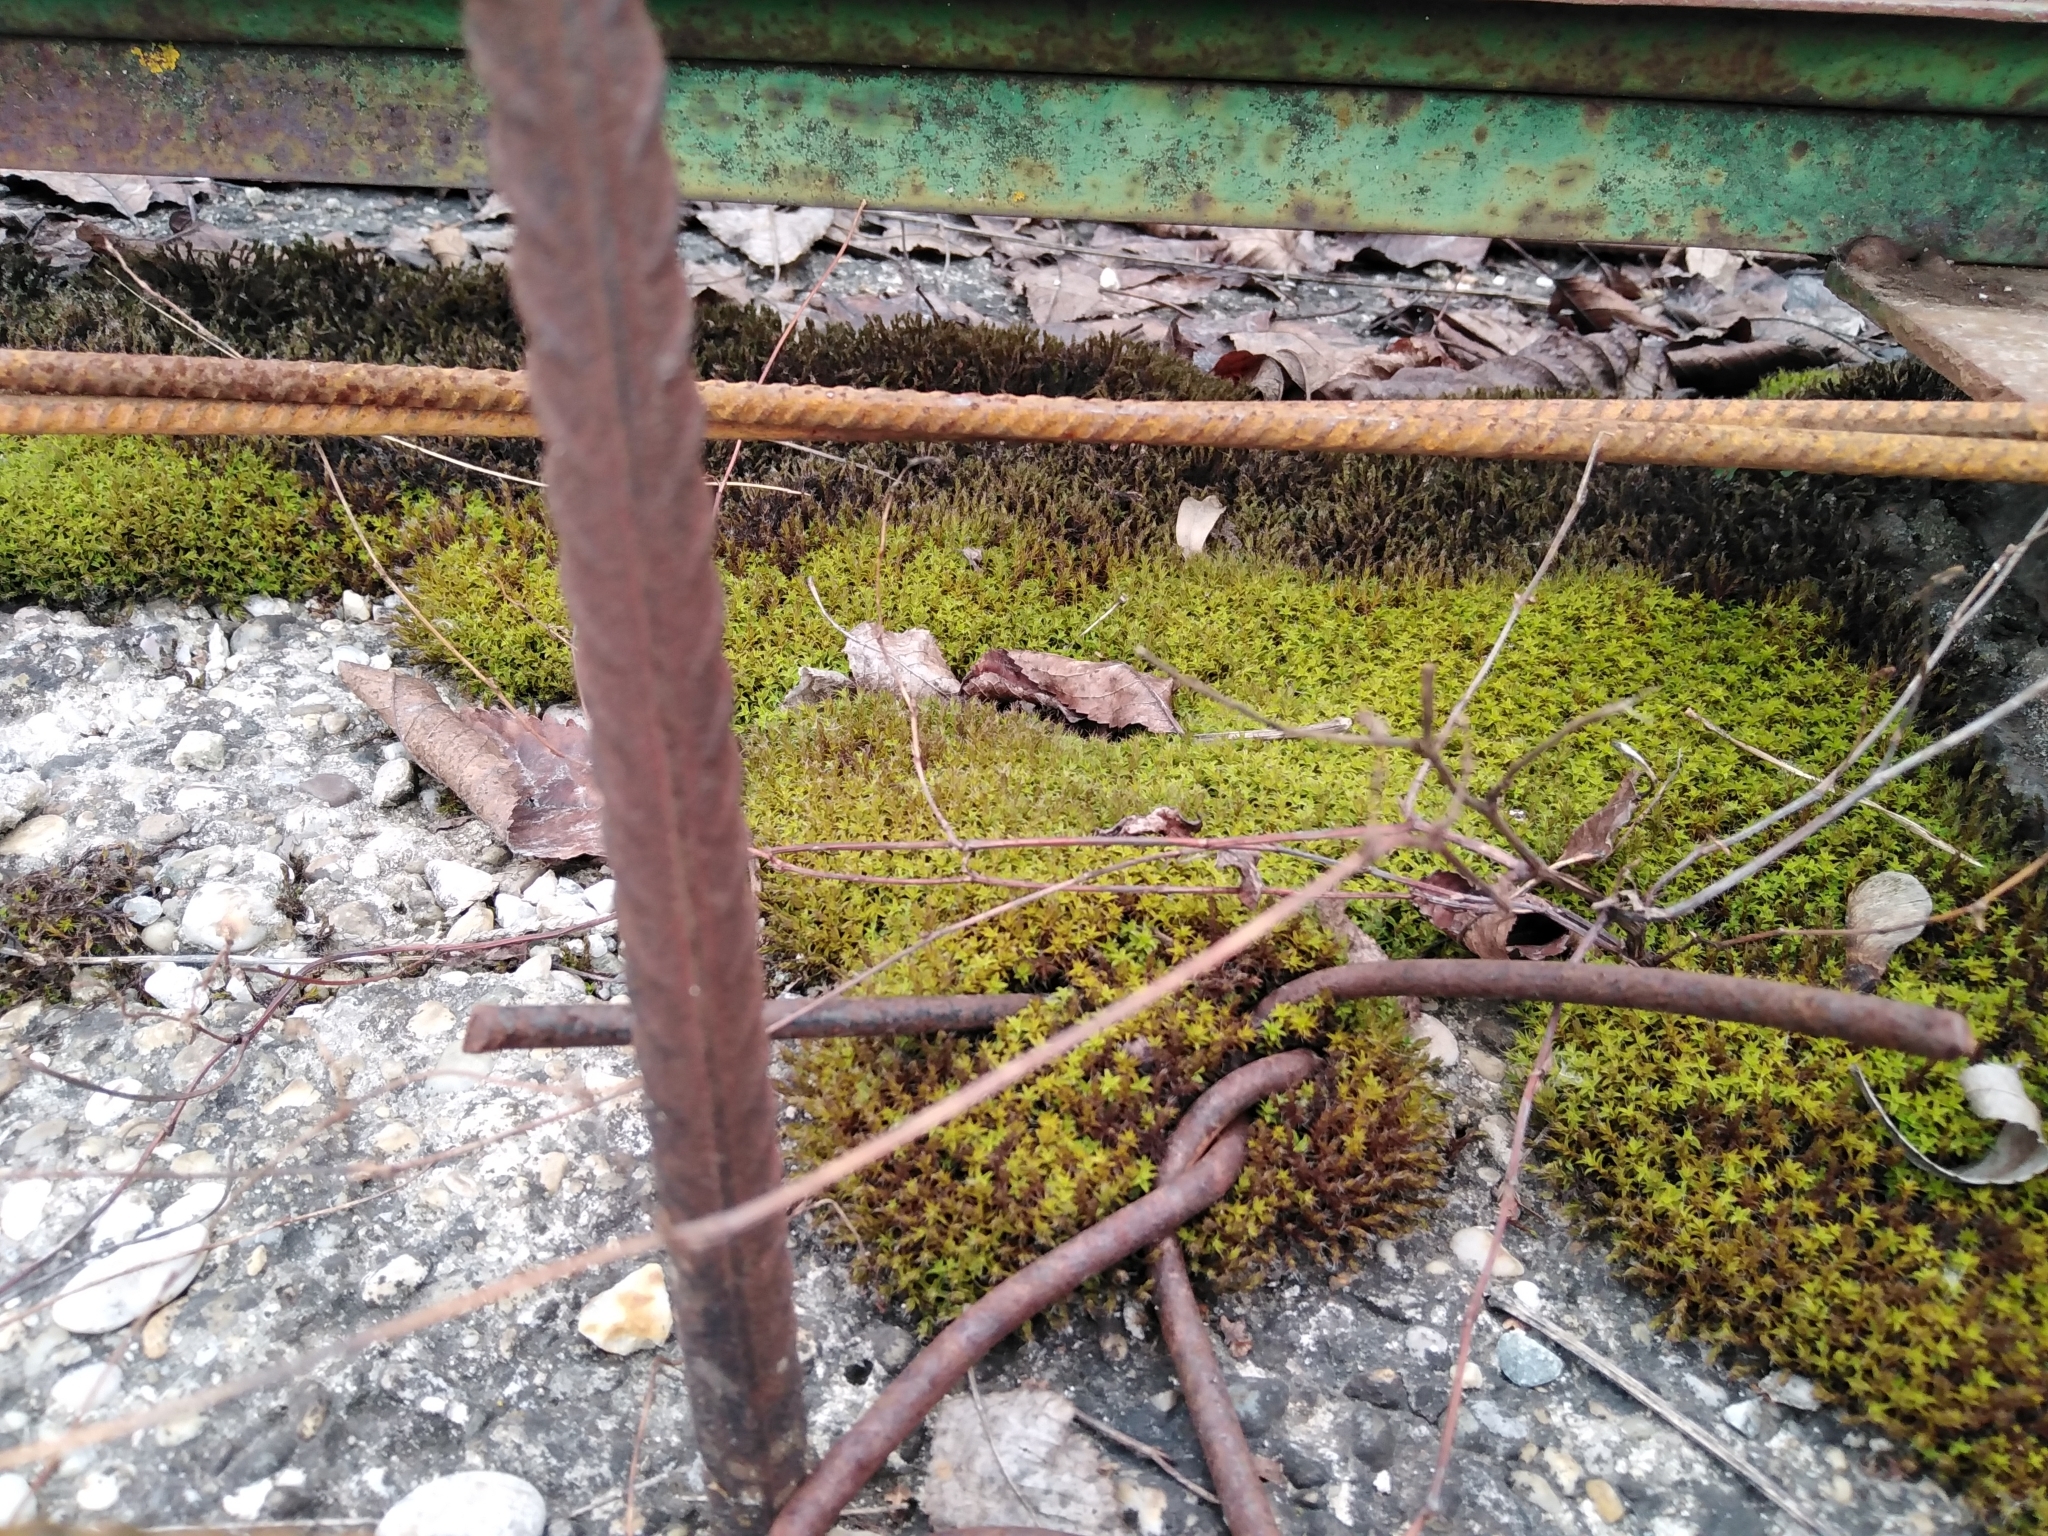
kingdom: Plantae
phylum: Bryophyta
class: Bryopsida
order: Pottiales
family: Pottiaceae
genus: Syntrichia
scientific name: Syntrichia ruralis
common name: Sidewalk screw moss
